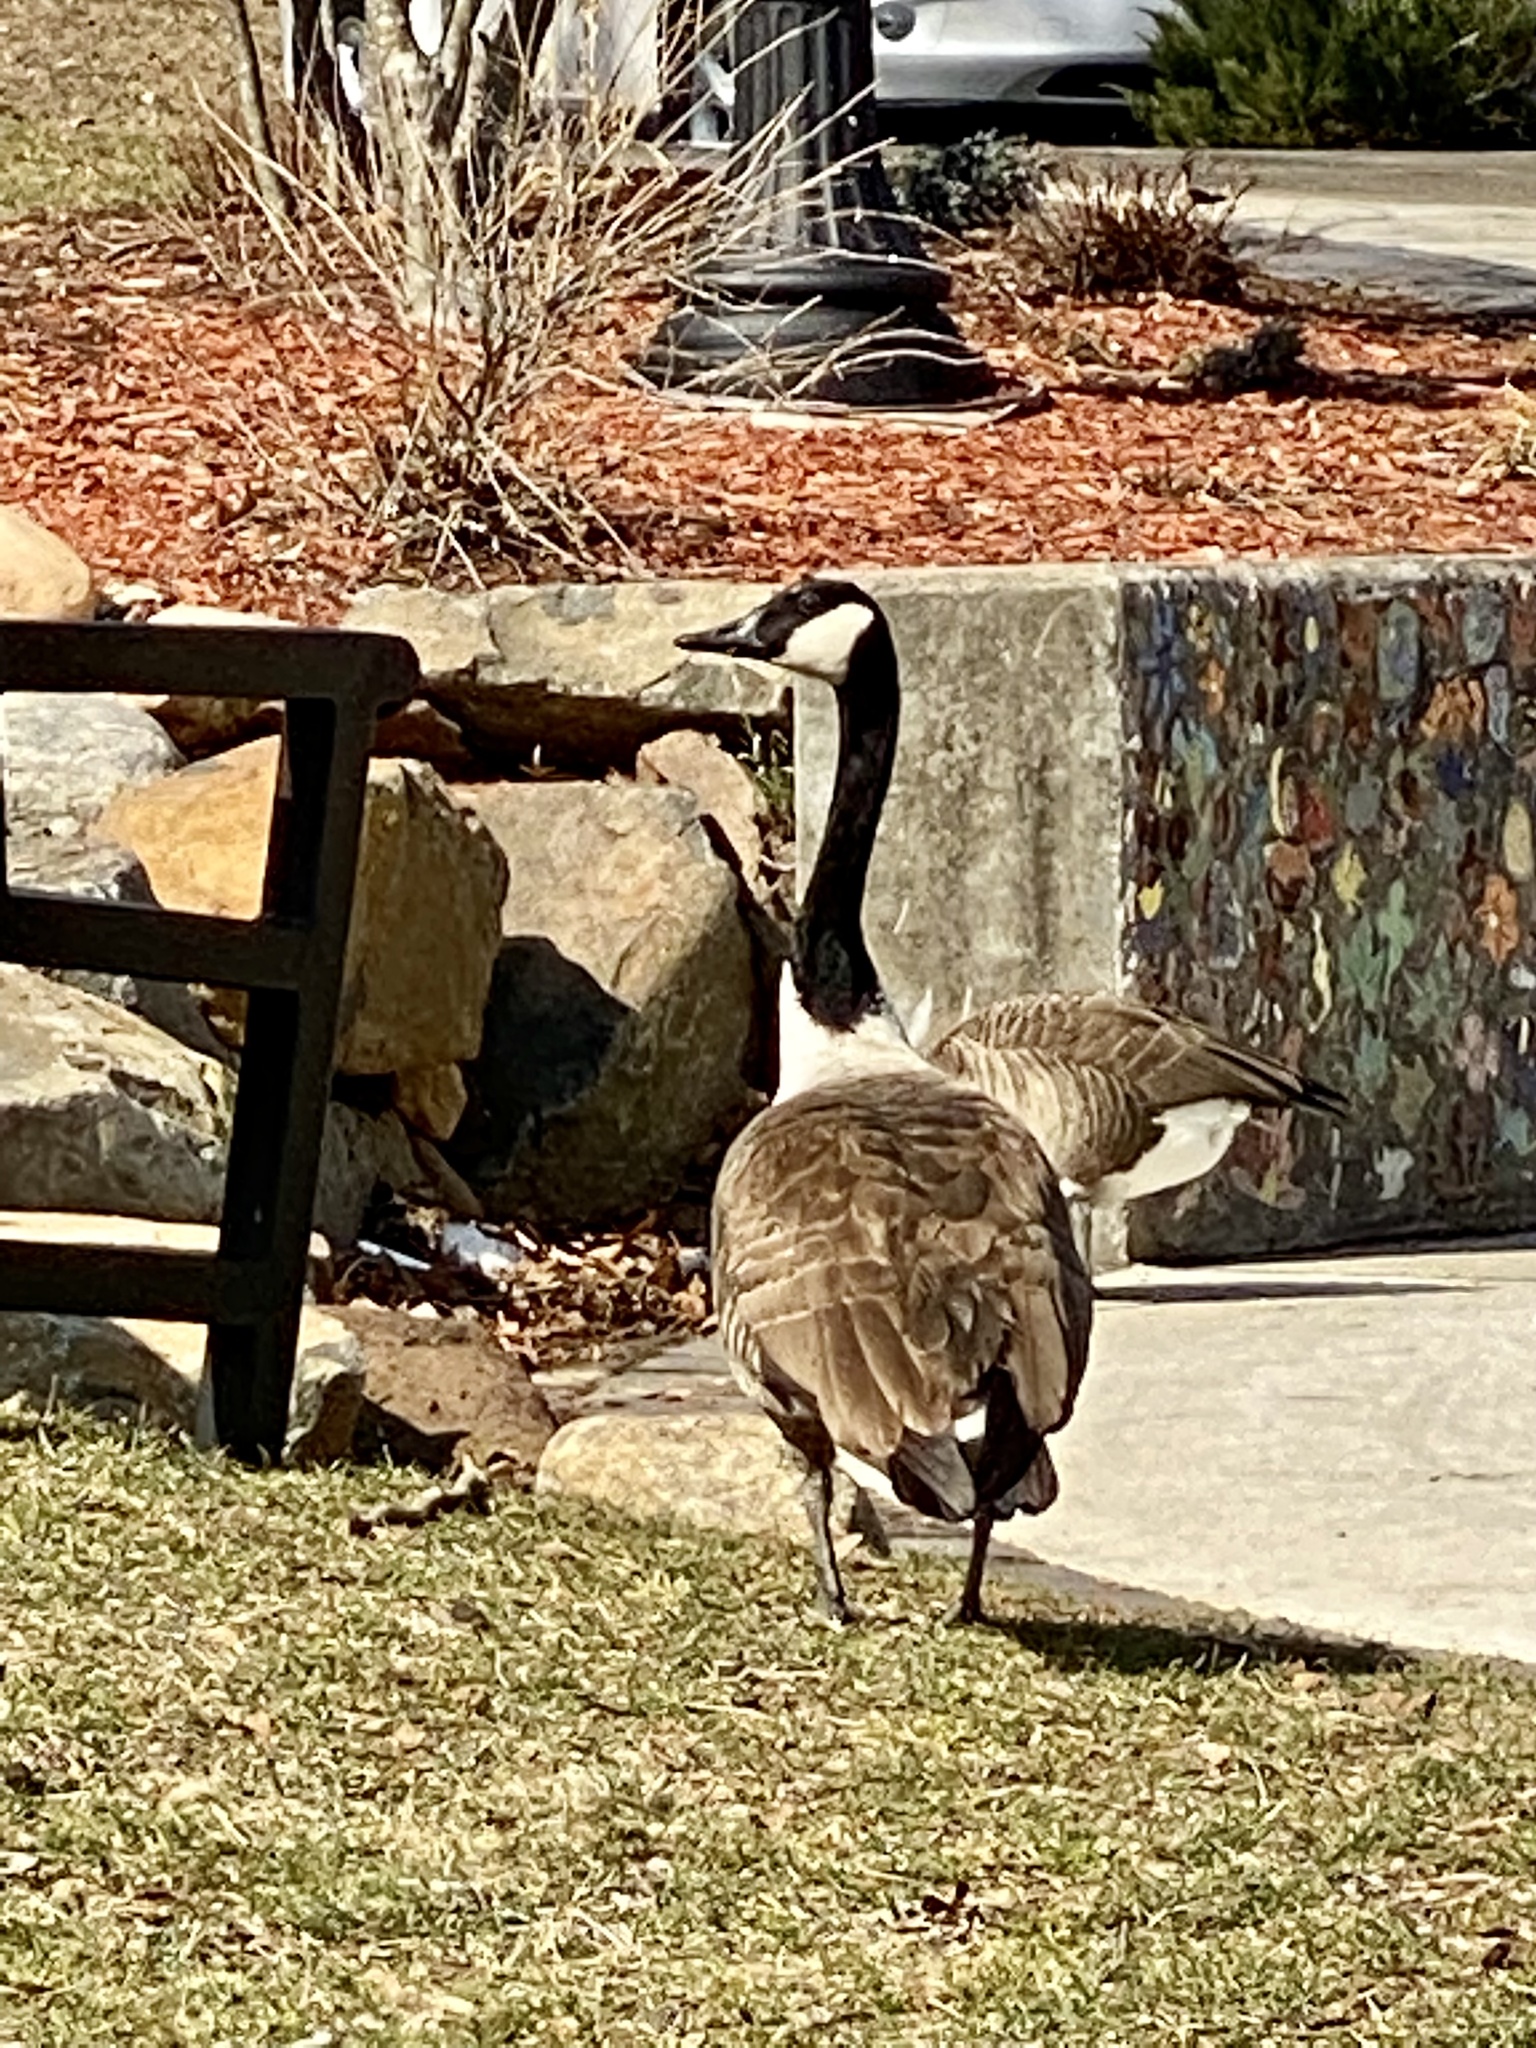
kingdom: Animalia
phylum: Chordata
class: Aves
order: Anseriformes
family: Anatidae
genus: Branta
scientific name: Branta canadensis
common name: Canada goose
